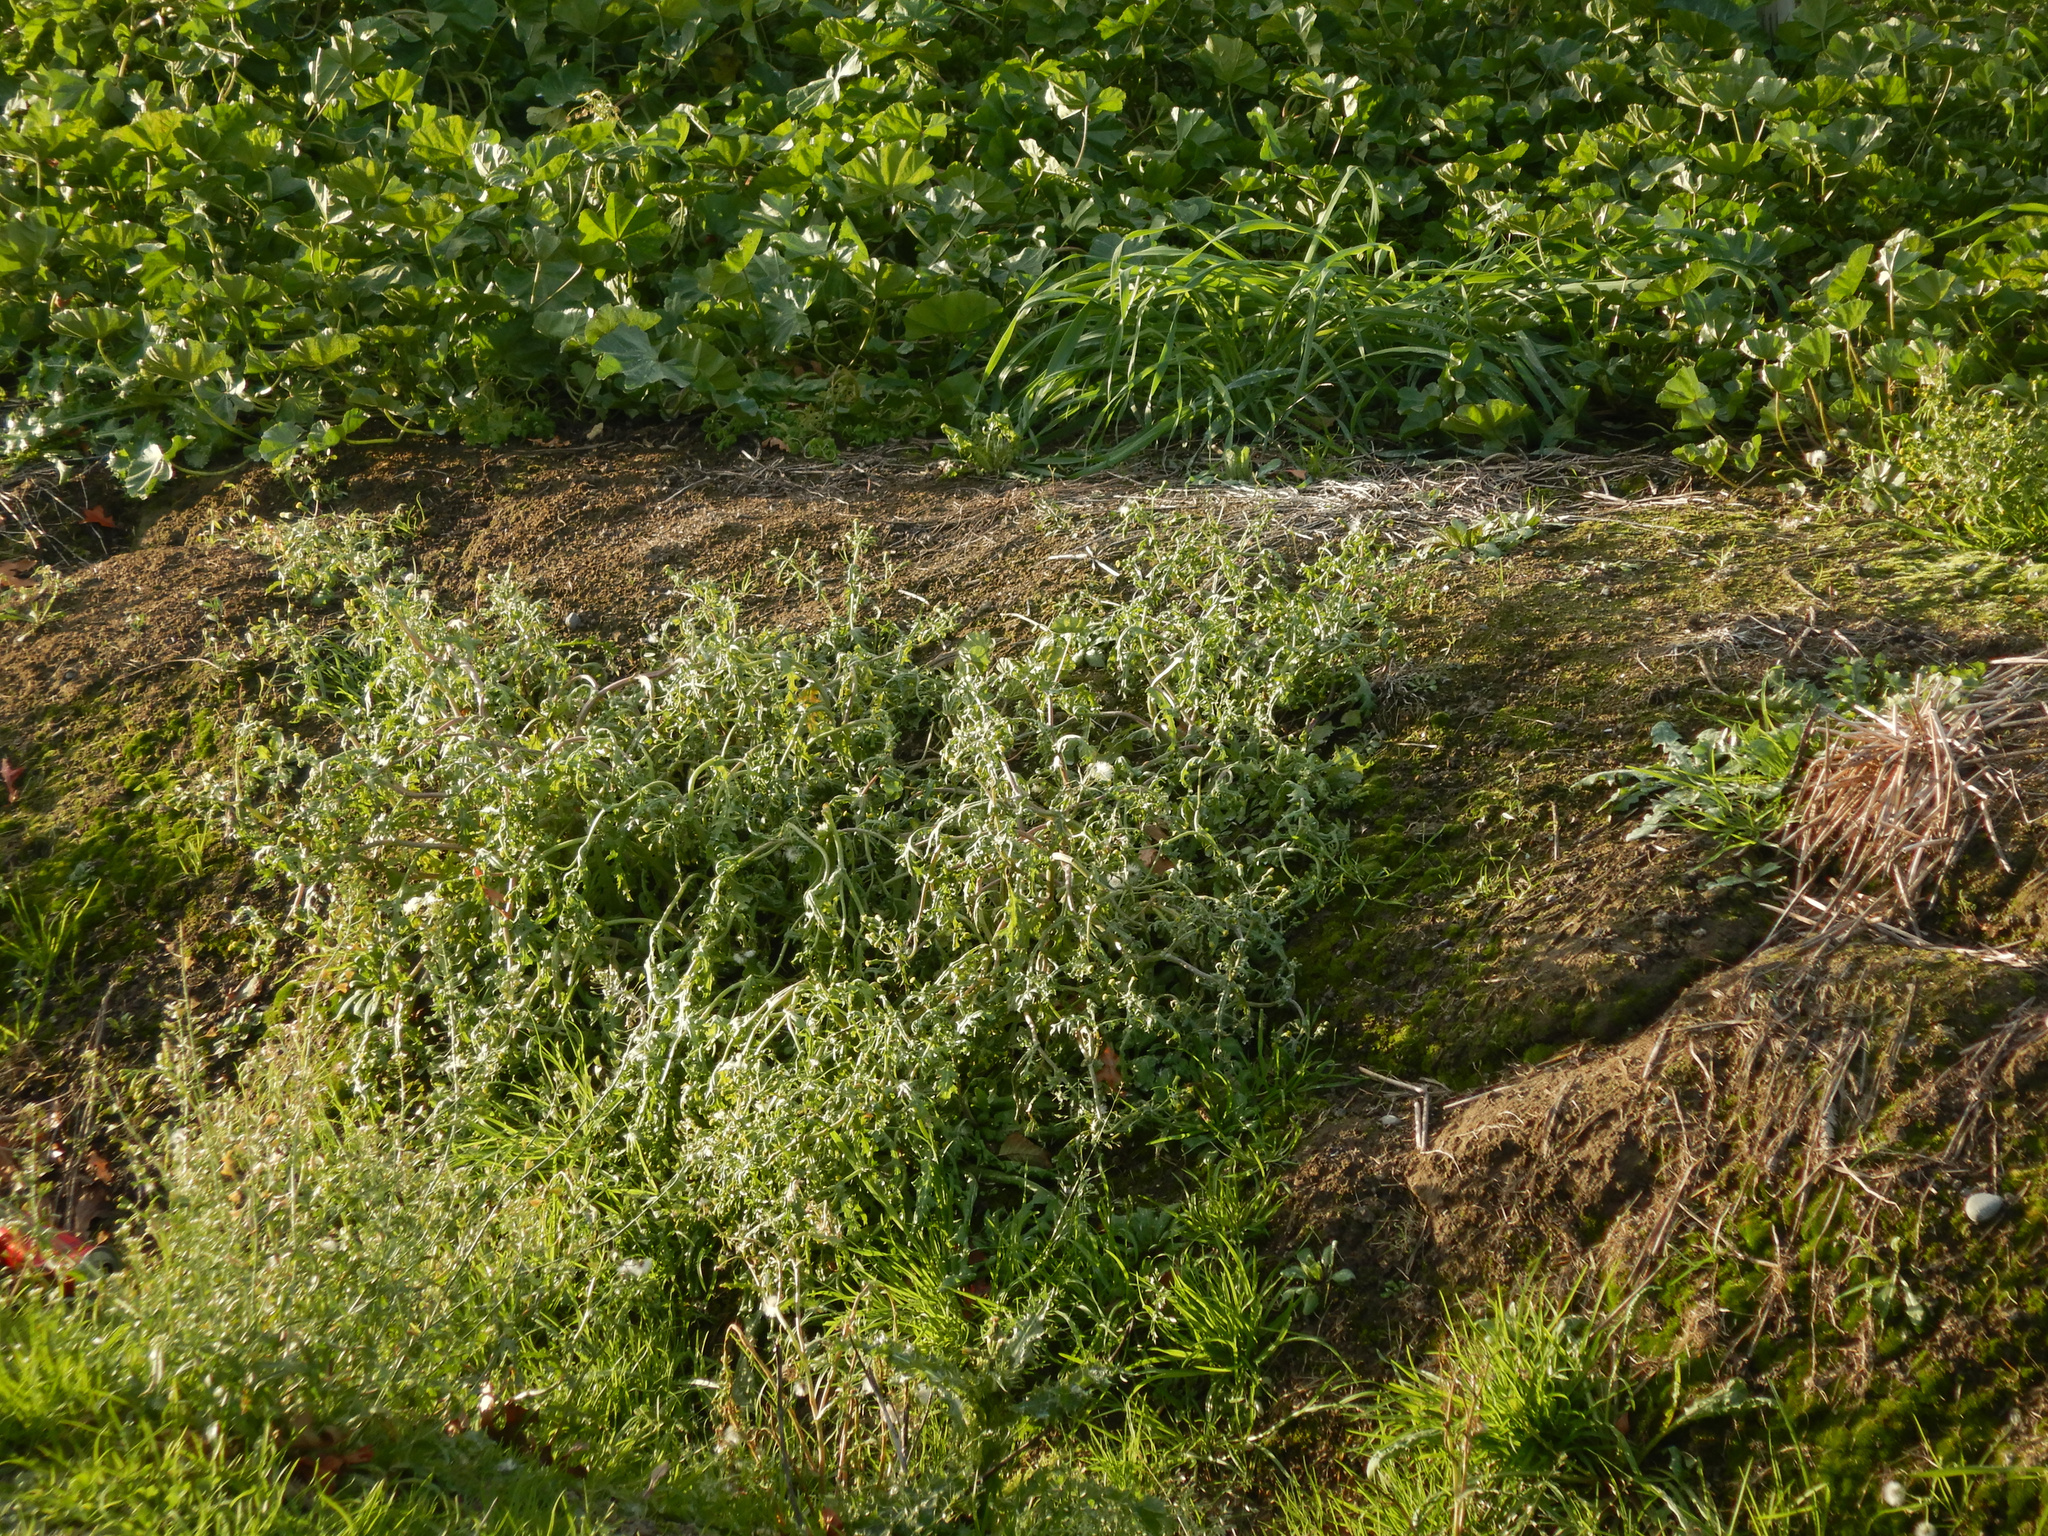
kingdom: Plantae
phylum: Tracheophyta
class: Magnoliopsida
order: Asterales
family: Asteraceae
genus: Senecio
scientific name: Senecio vulgaris
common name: Old-man-in-the-spring
